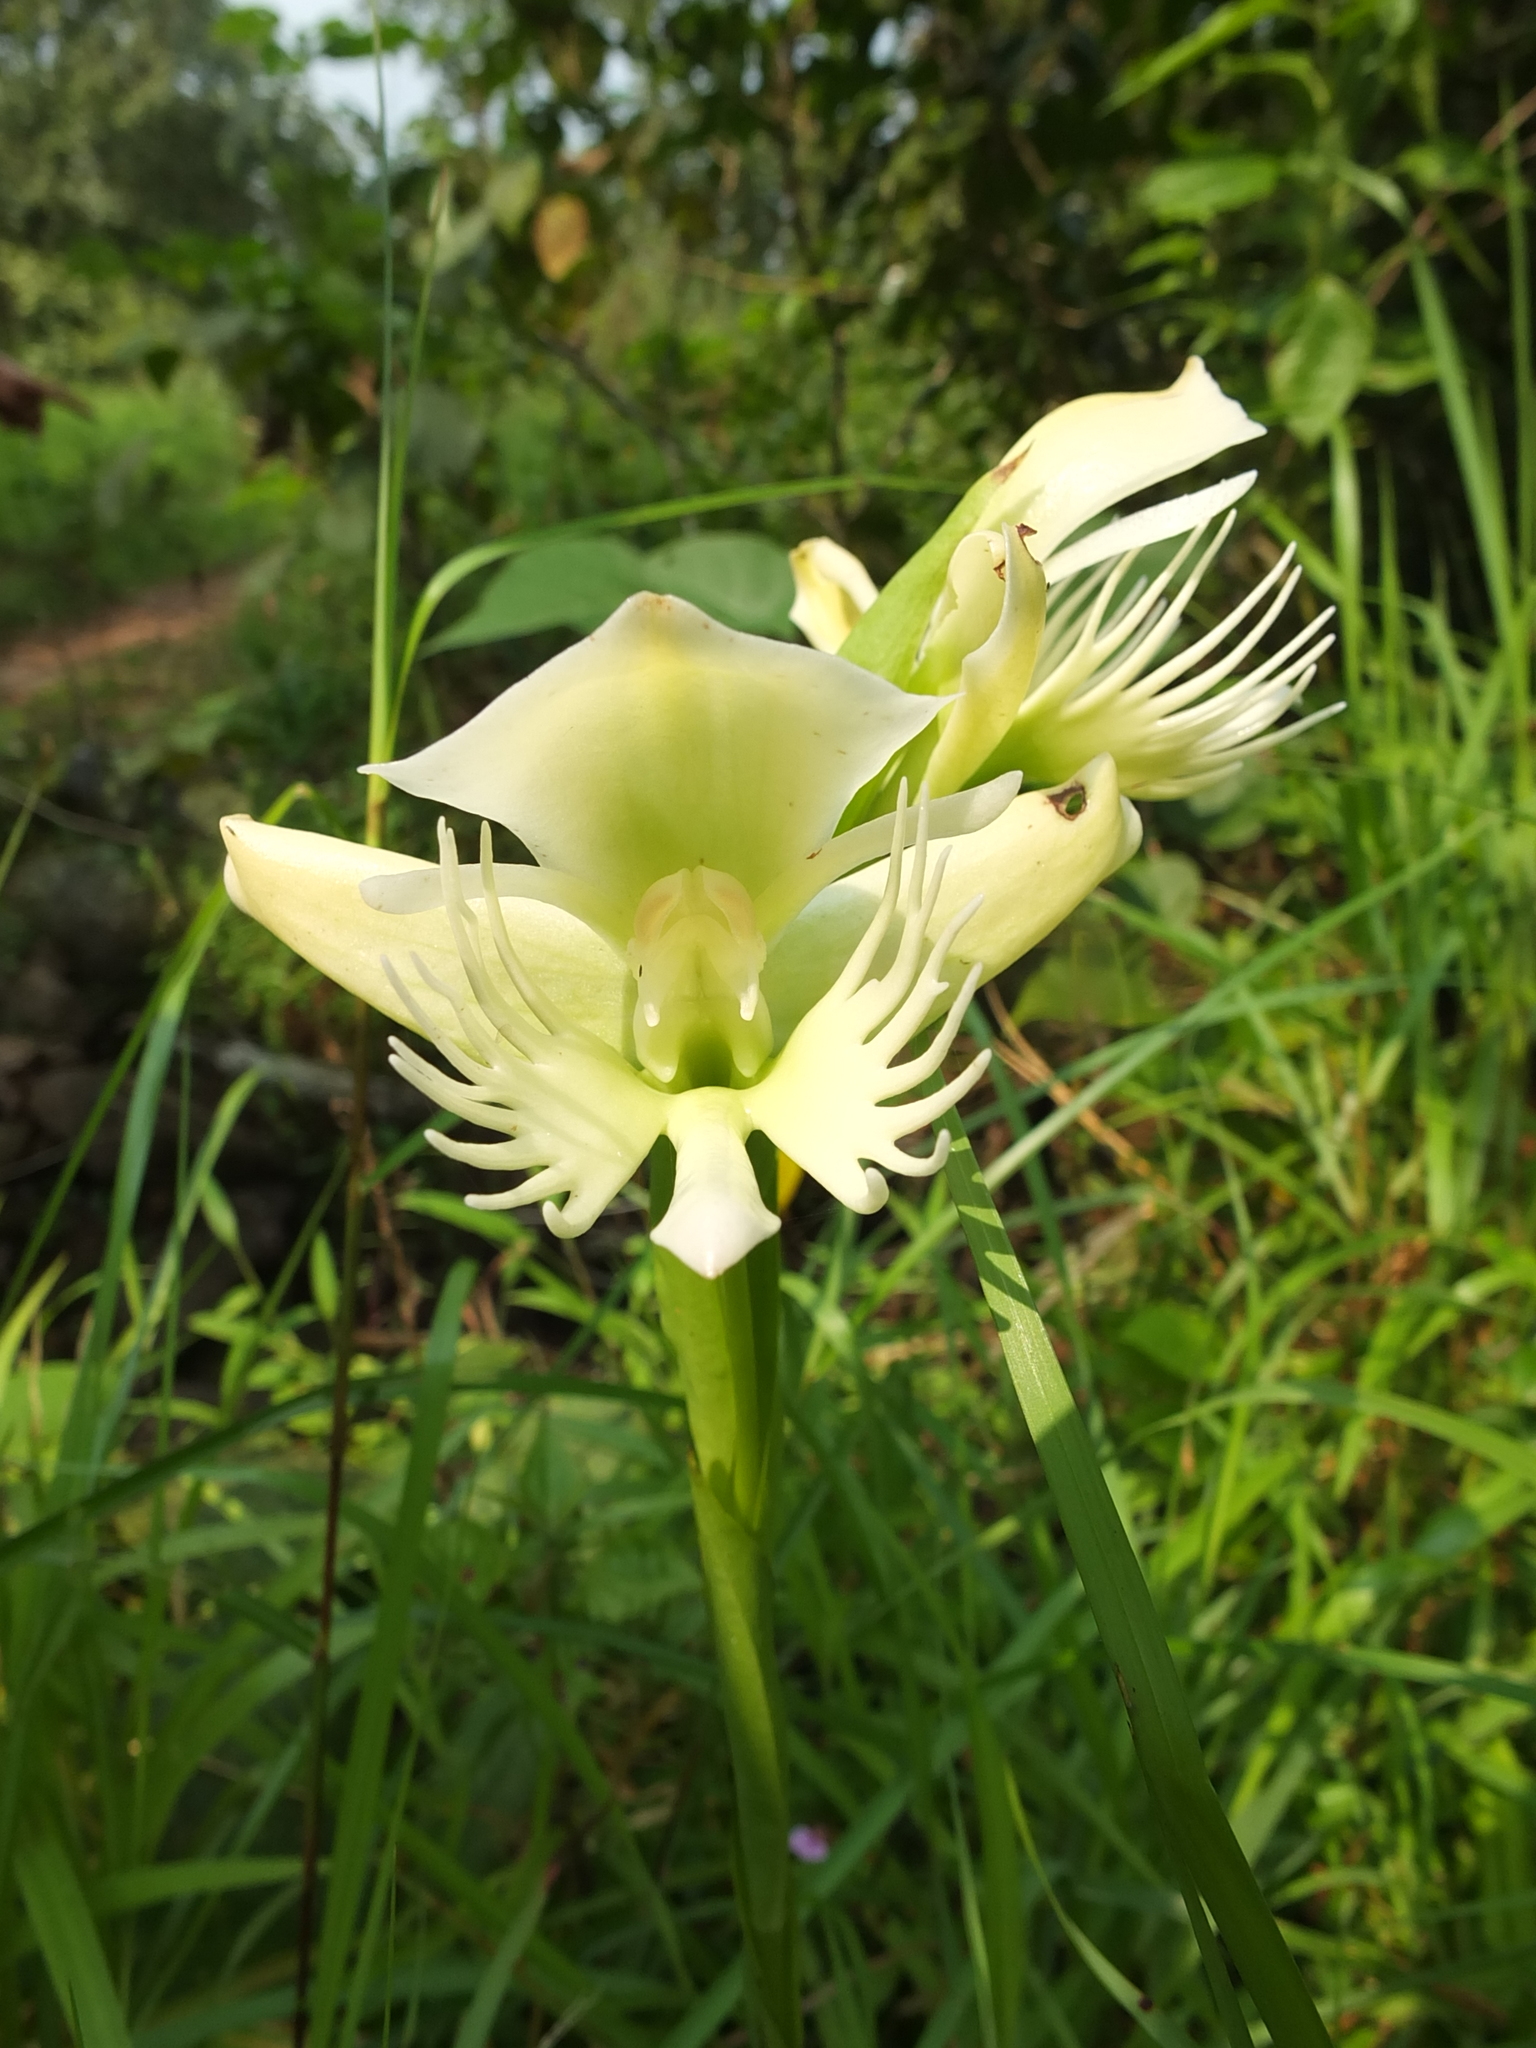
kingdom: Plantae
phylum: Tracheophyta
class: Liliopsida
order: Asparagales
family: Orchidaceae
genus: Pecteilis
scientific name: Pecteilis gigantea
